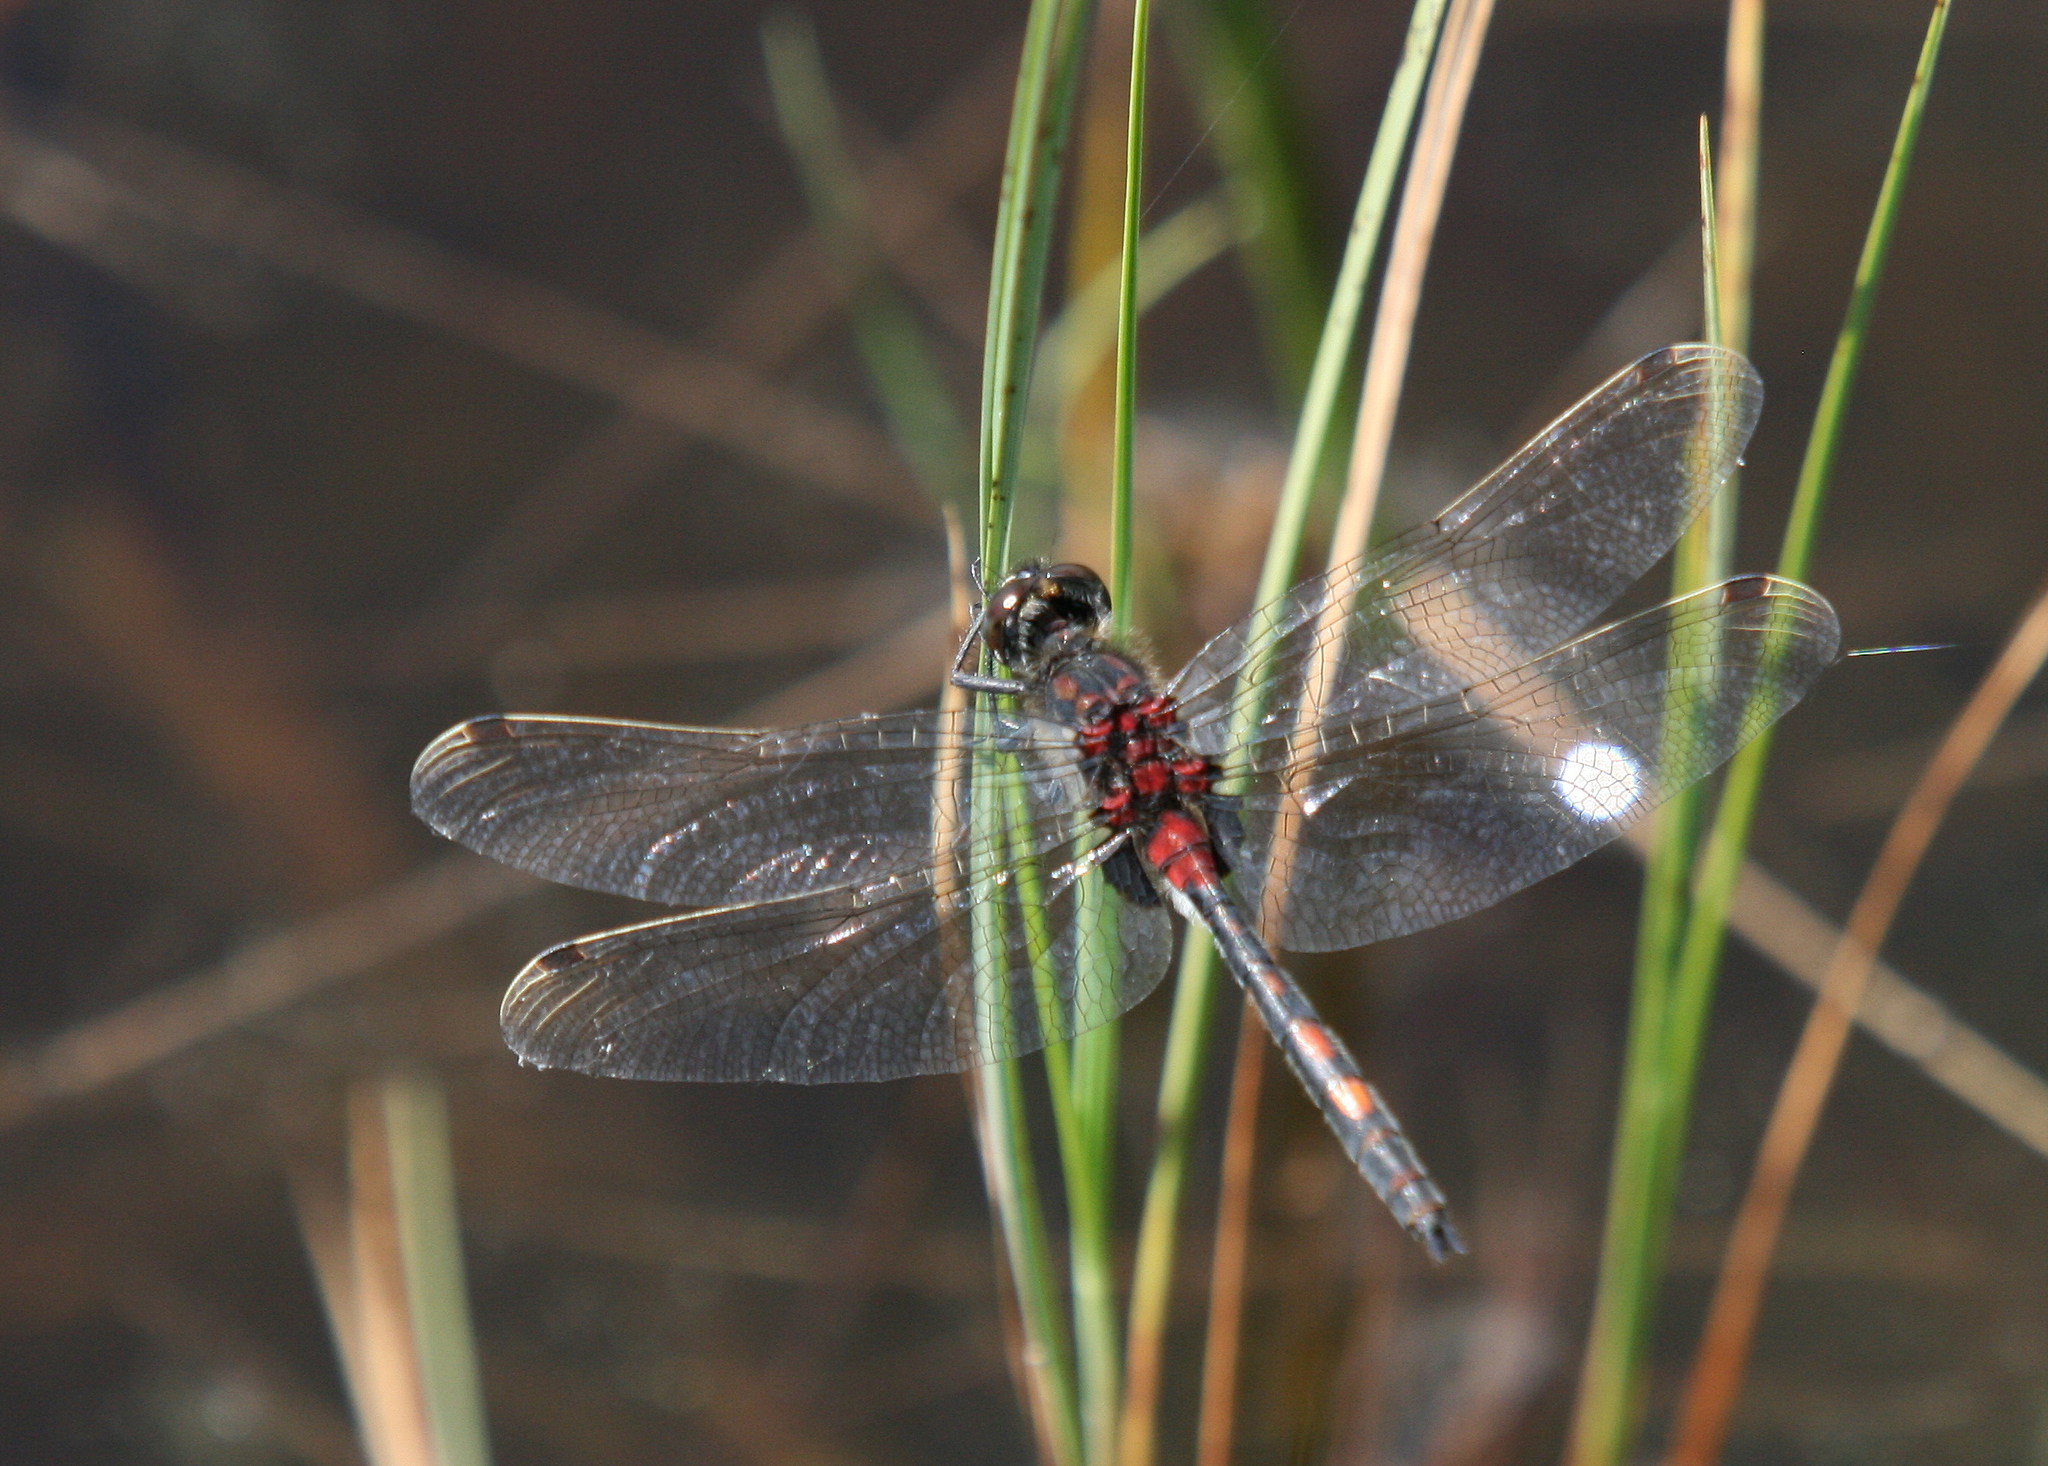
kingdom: Animalia
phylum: Arthropoda
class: Insecta
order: Odonata
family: Libellulidae
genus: Leucorrhinia
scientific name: Leucorrhinia dubia
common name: White-faced darter
